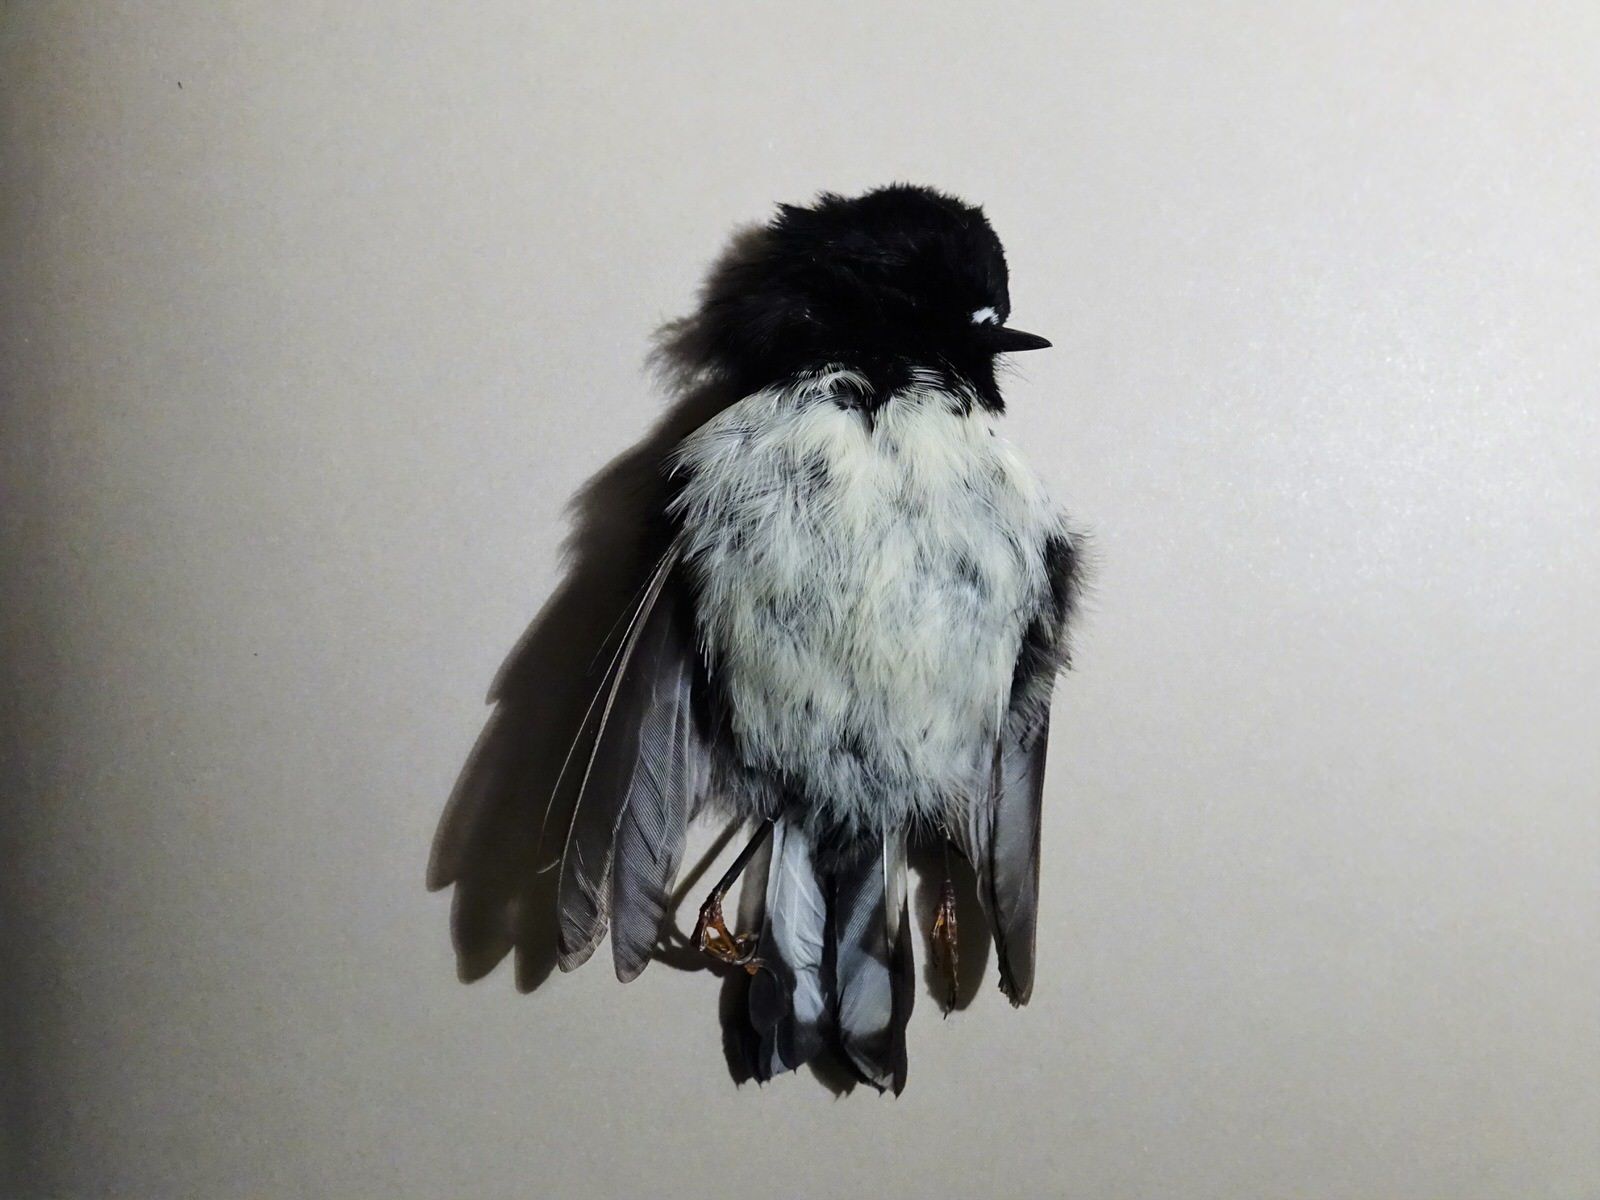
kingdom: Animalia
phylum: Chordata
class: Aves
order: Passeriformes
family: Petroicidae
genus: Petroica
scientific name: Petroica macrocephala
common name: Tomtit
